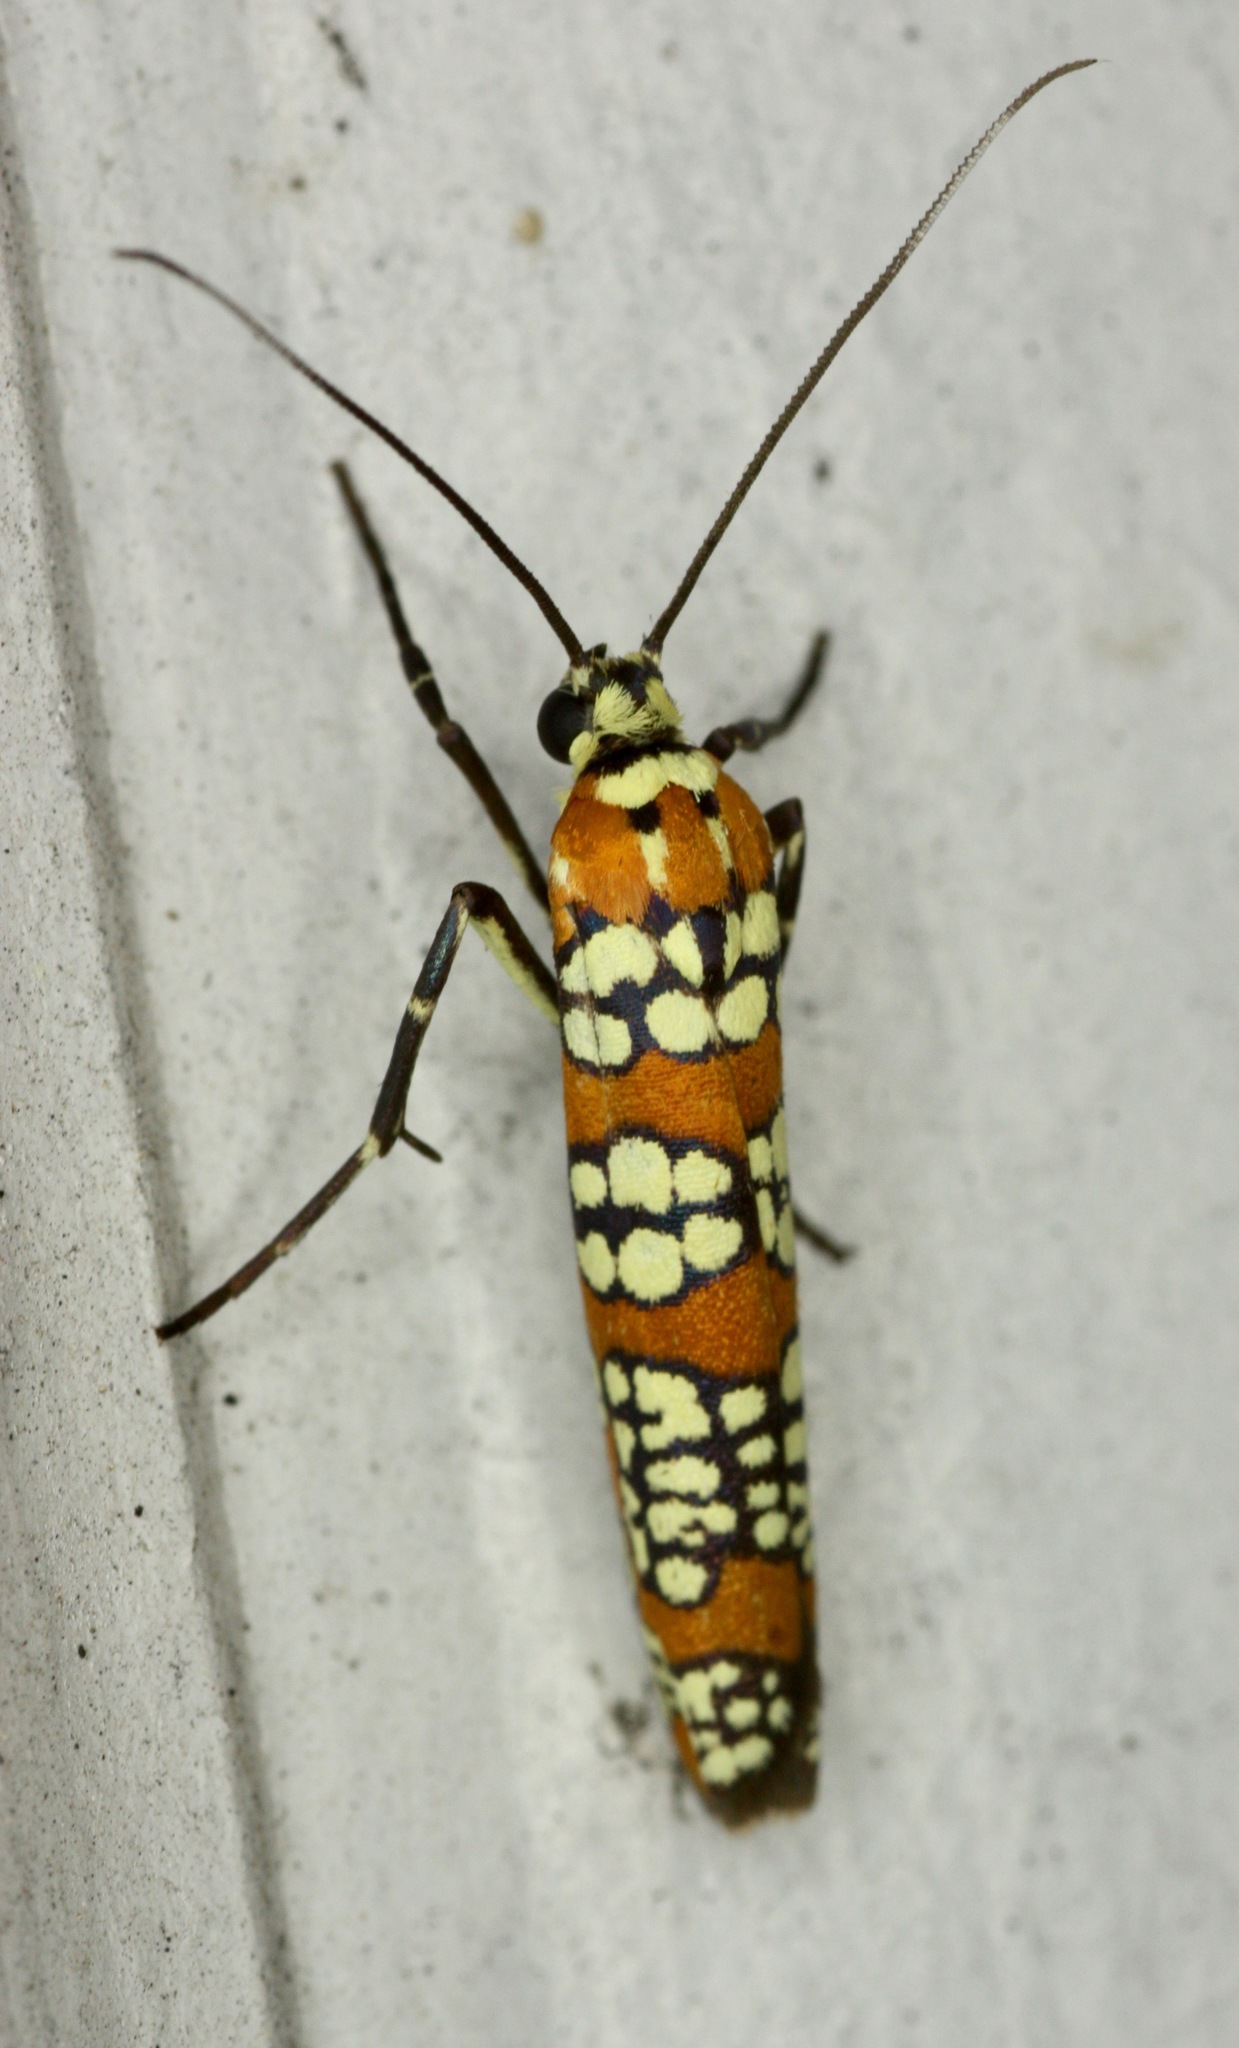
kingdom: Animalia
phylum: Arthropoda
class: Insecta
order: Lepidoptera
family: Attevidae
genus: Atteva
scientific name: Atteva punctella
